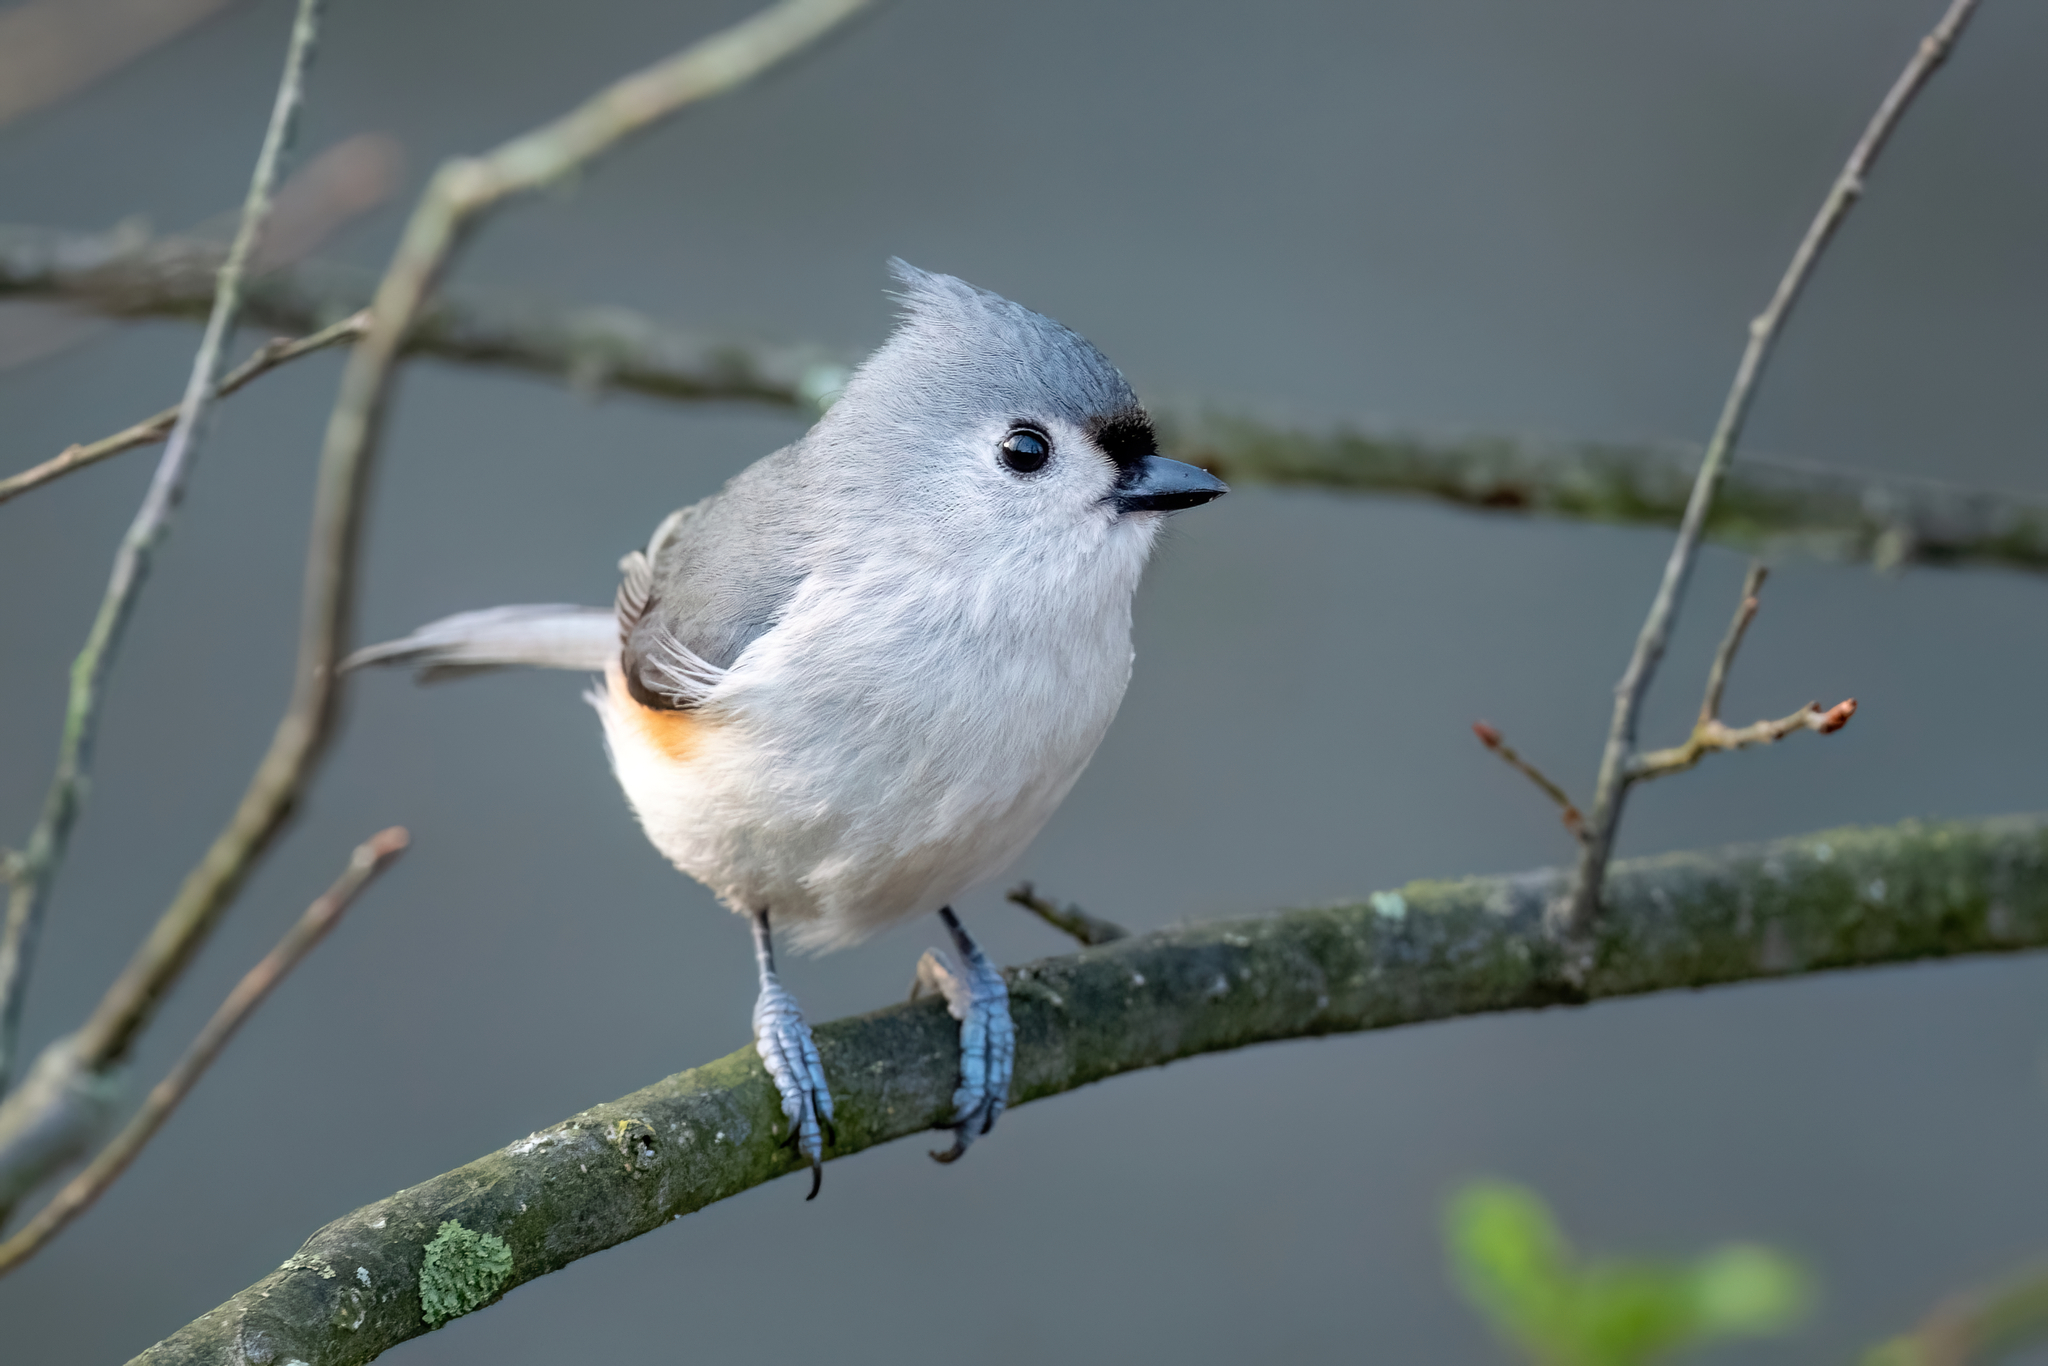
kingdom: Animalia
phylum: Chordata
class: Aves
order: Passeriformes
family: Paridae
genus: Baeolophus
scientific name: Baeolophus bicolor
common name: Tufted titmouse
